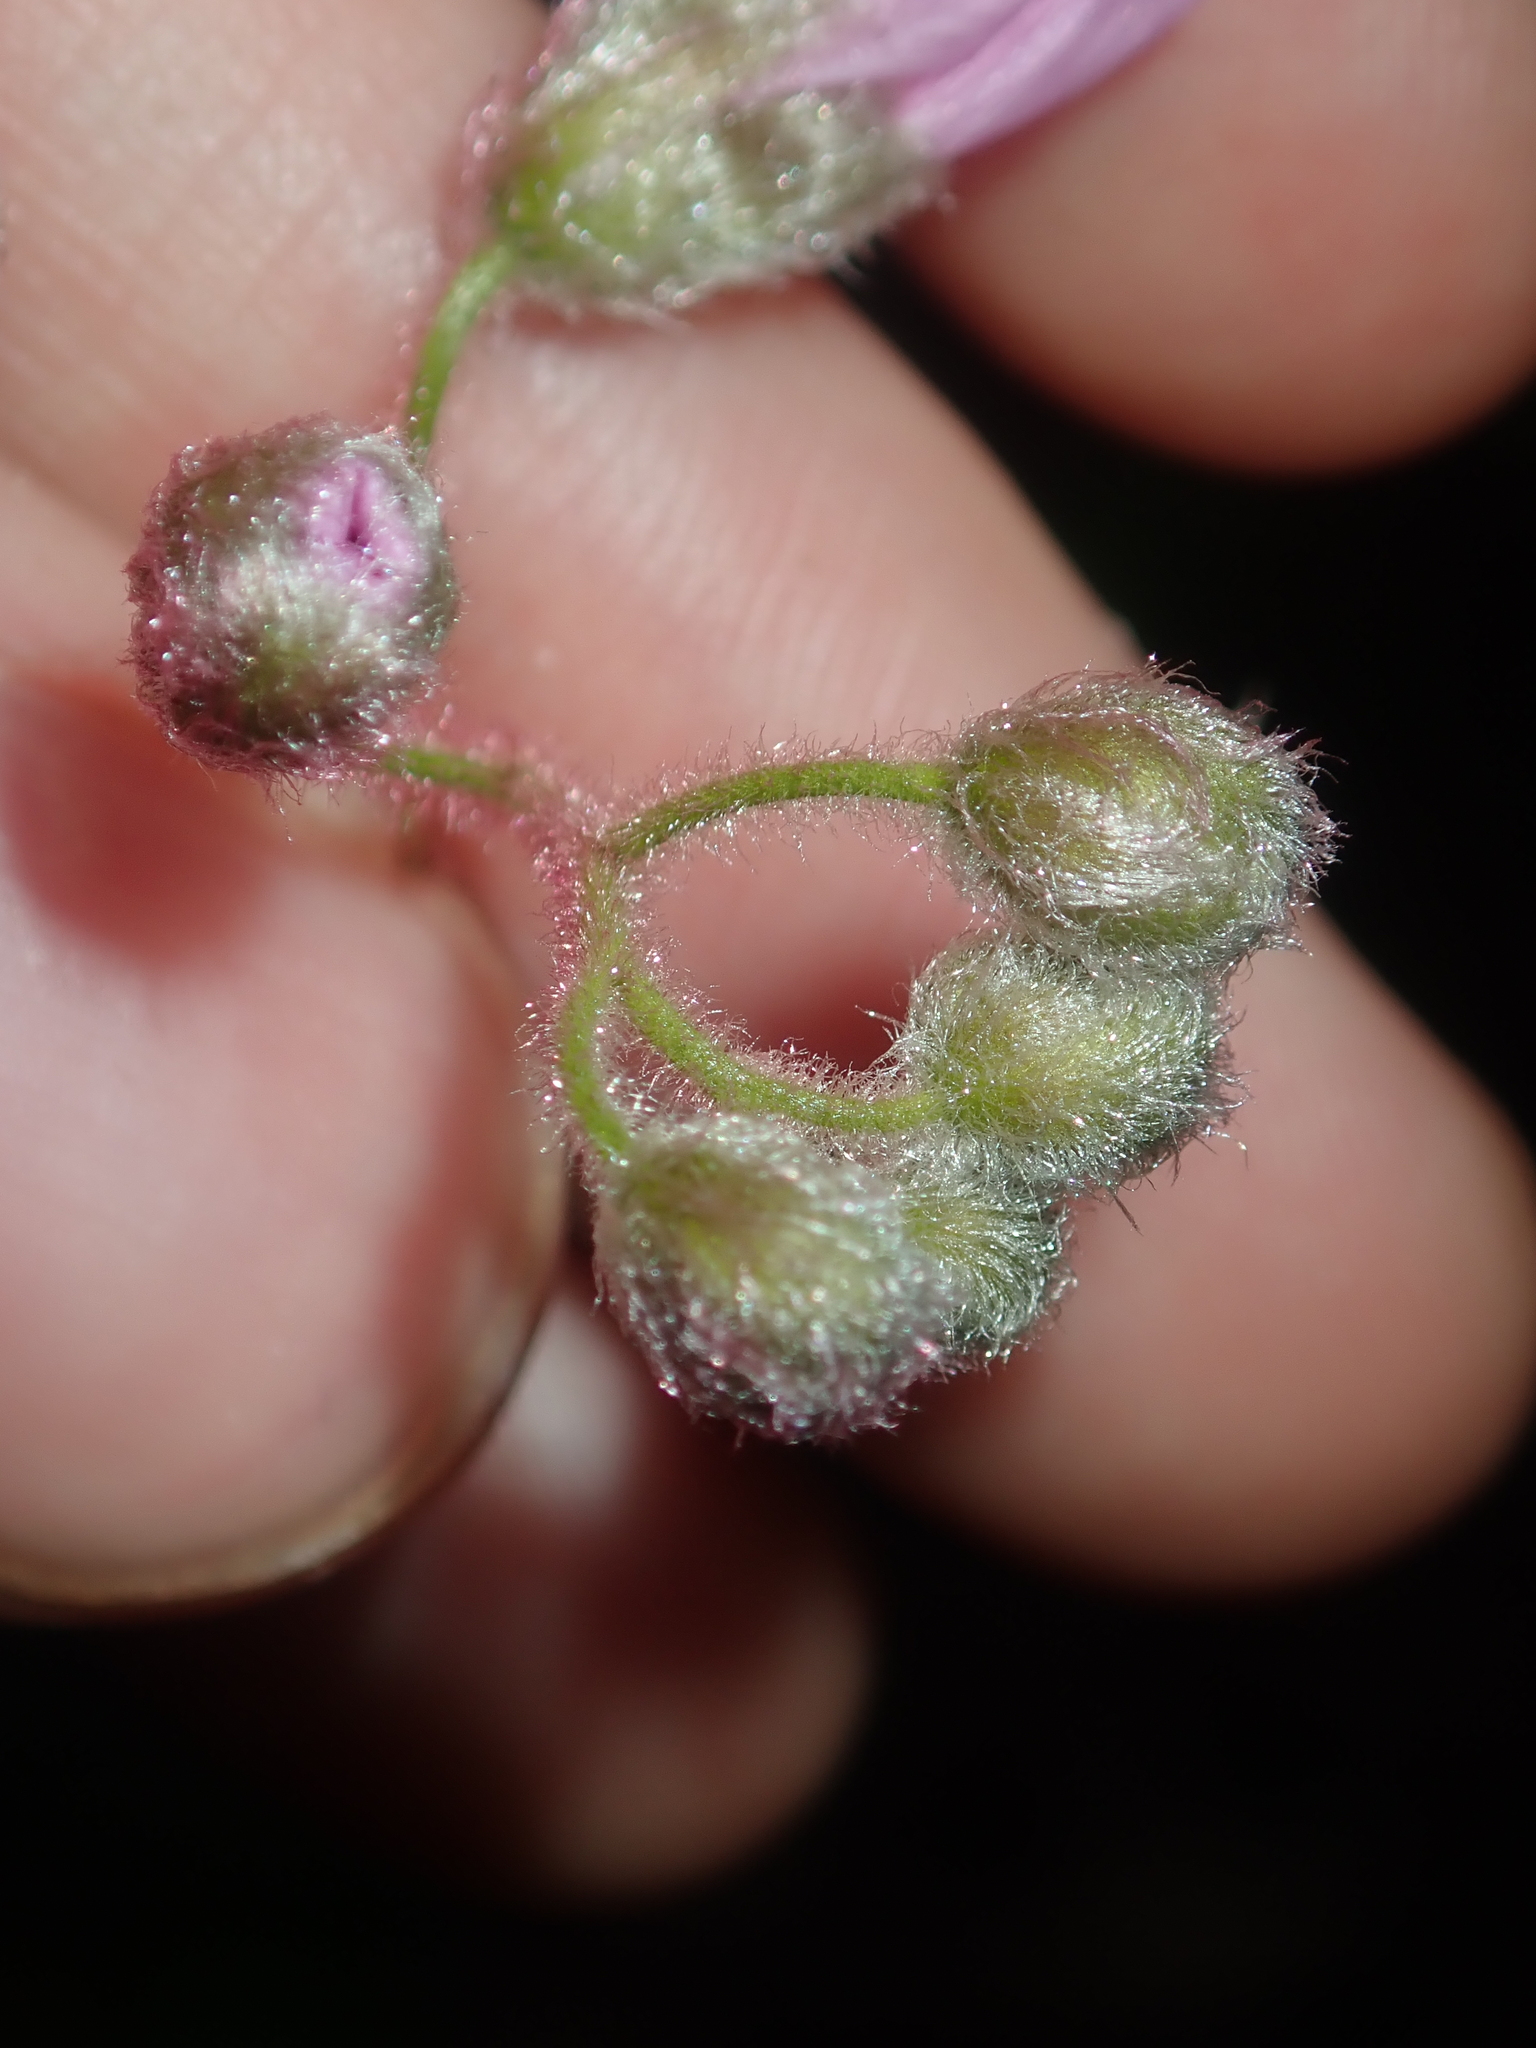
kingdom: Plantae
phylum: Tracheophyta
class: Magnoliopsida
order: Caryophyllales
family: Droseraceae
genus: Drosera
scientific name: Drosera hirsuta
